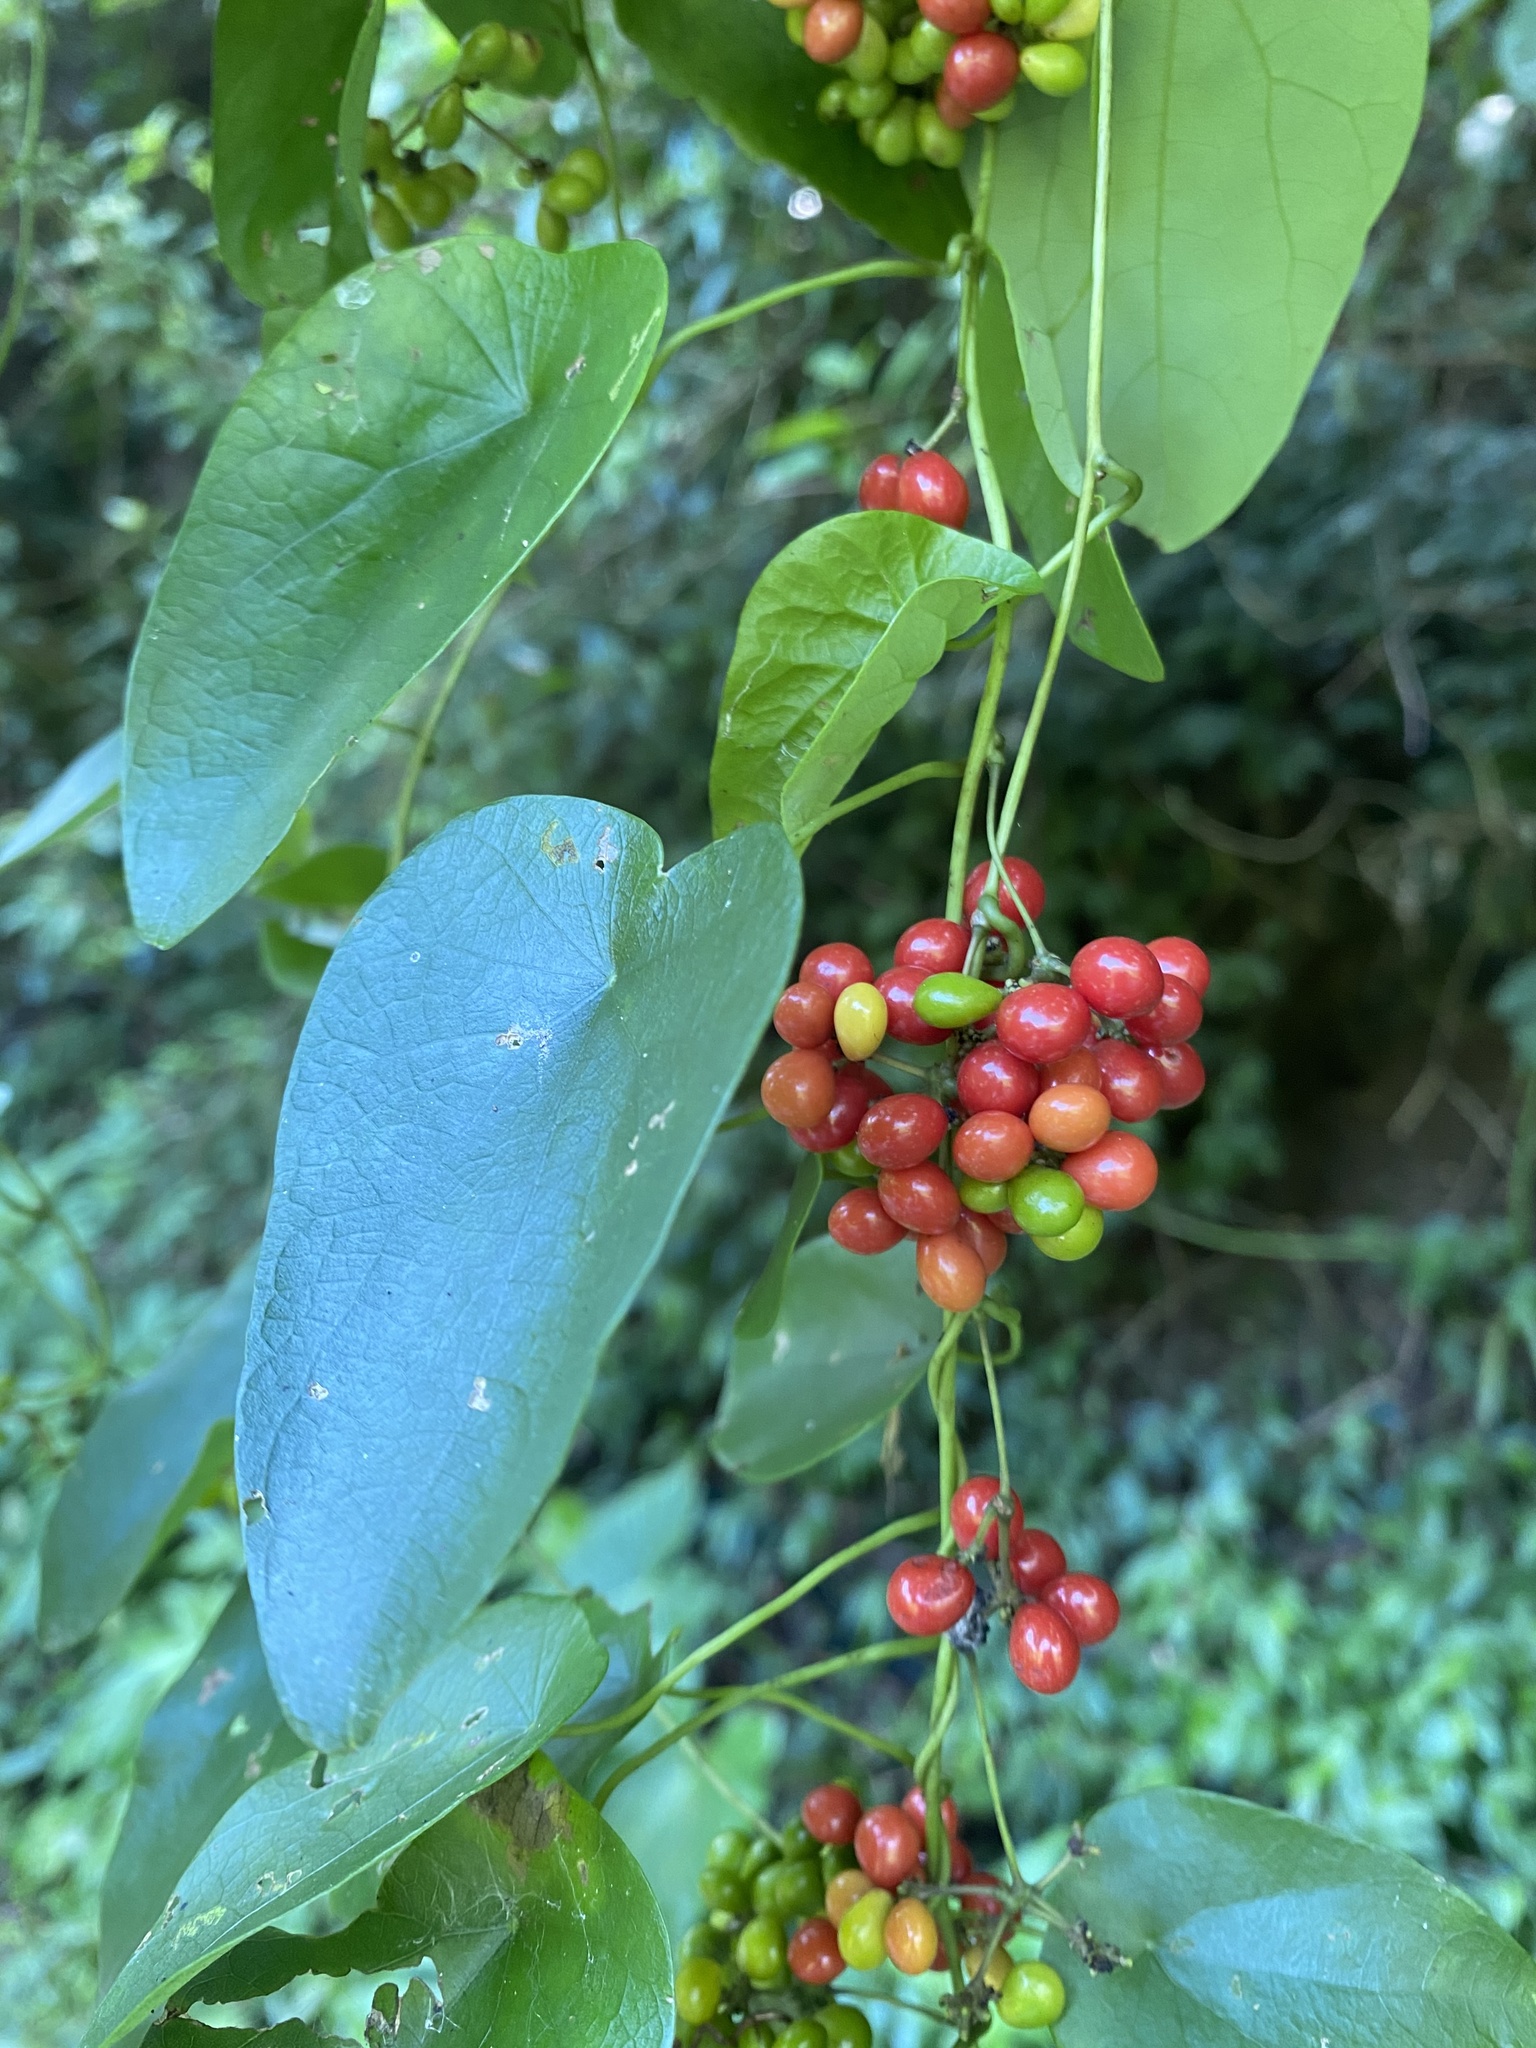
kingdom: Plantae
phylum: Tracheophyta
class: Magnoliopsida
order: Ranunculales
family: Menispermaceae
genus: Stephania
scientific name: Stephania japonica
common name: Snake vine
